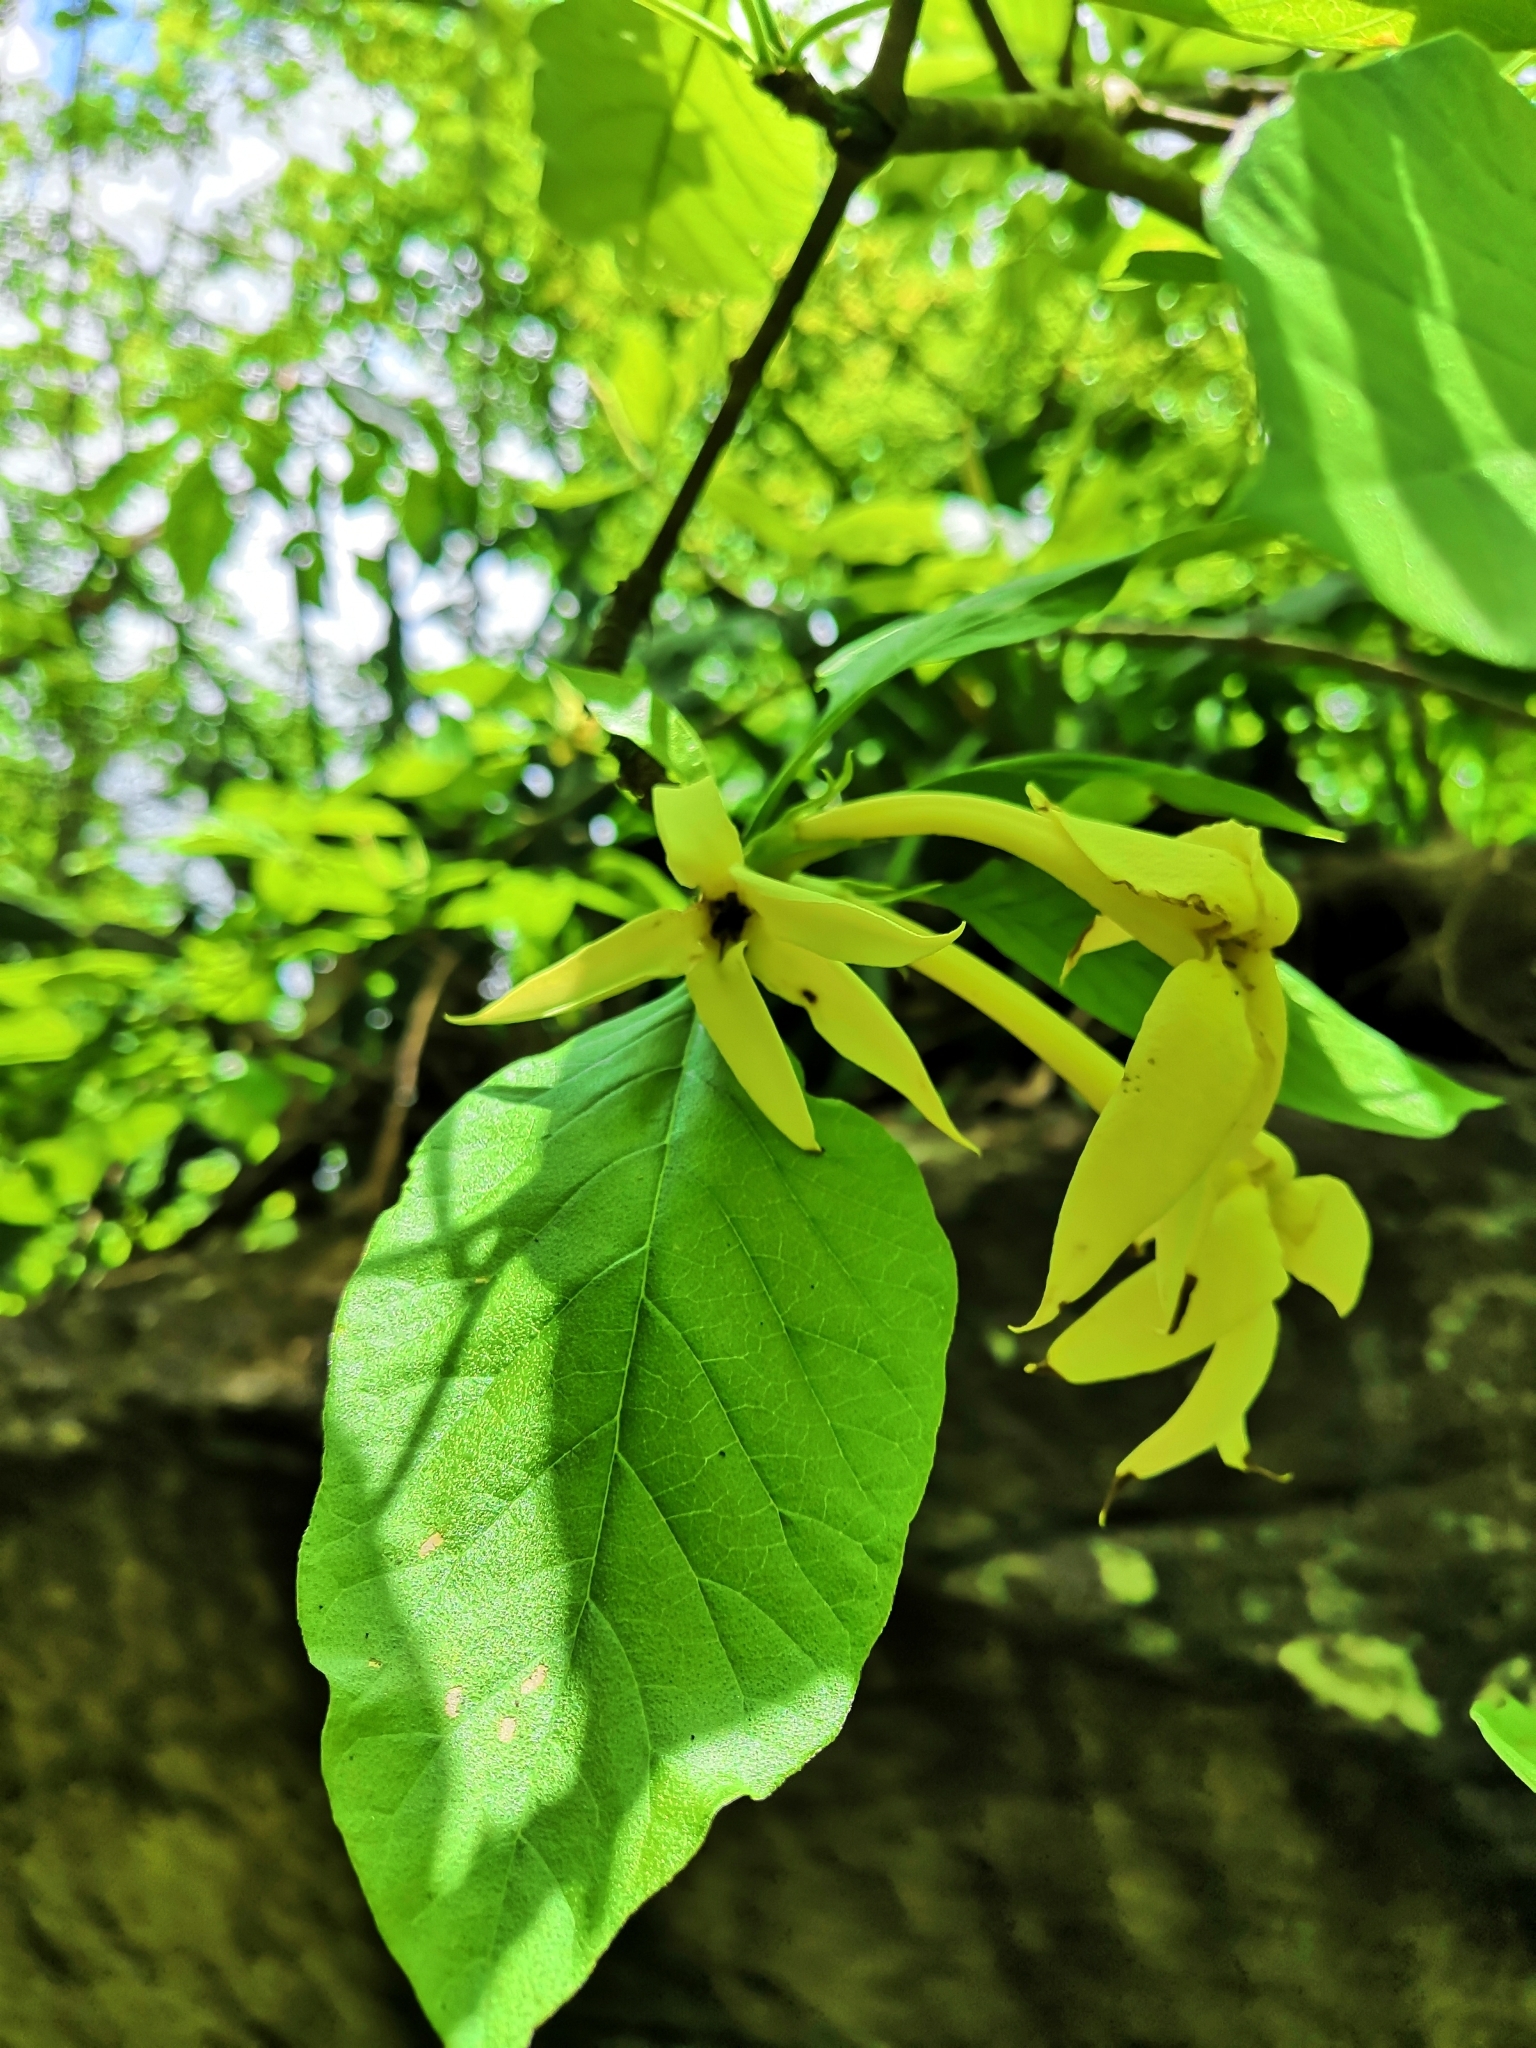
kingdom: Plantae
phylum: Tracheophyta
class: Magnoliopsida
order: Gentianales
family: Rubiaceae
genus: Randia
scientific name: Randia echinocarpa
